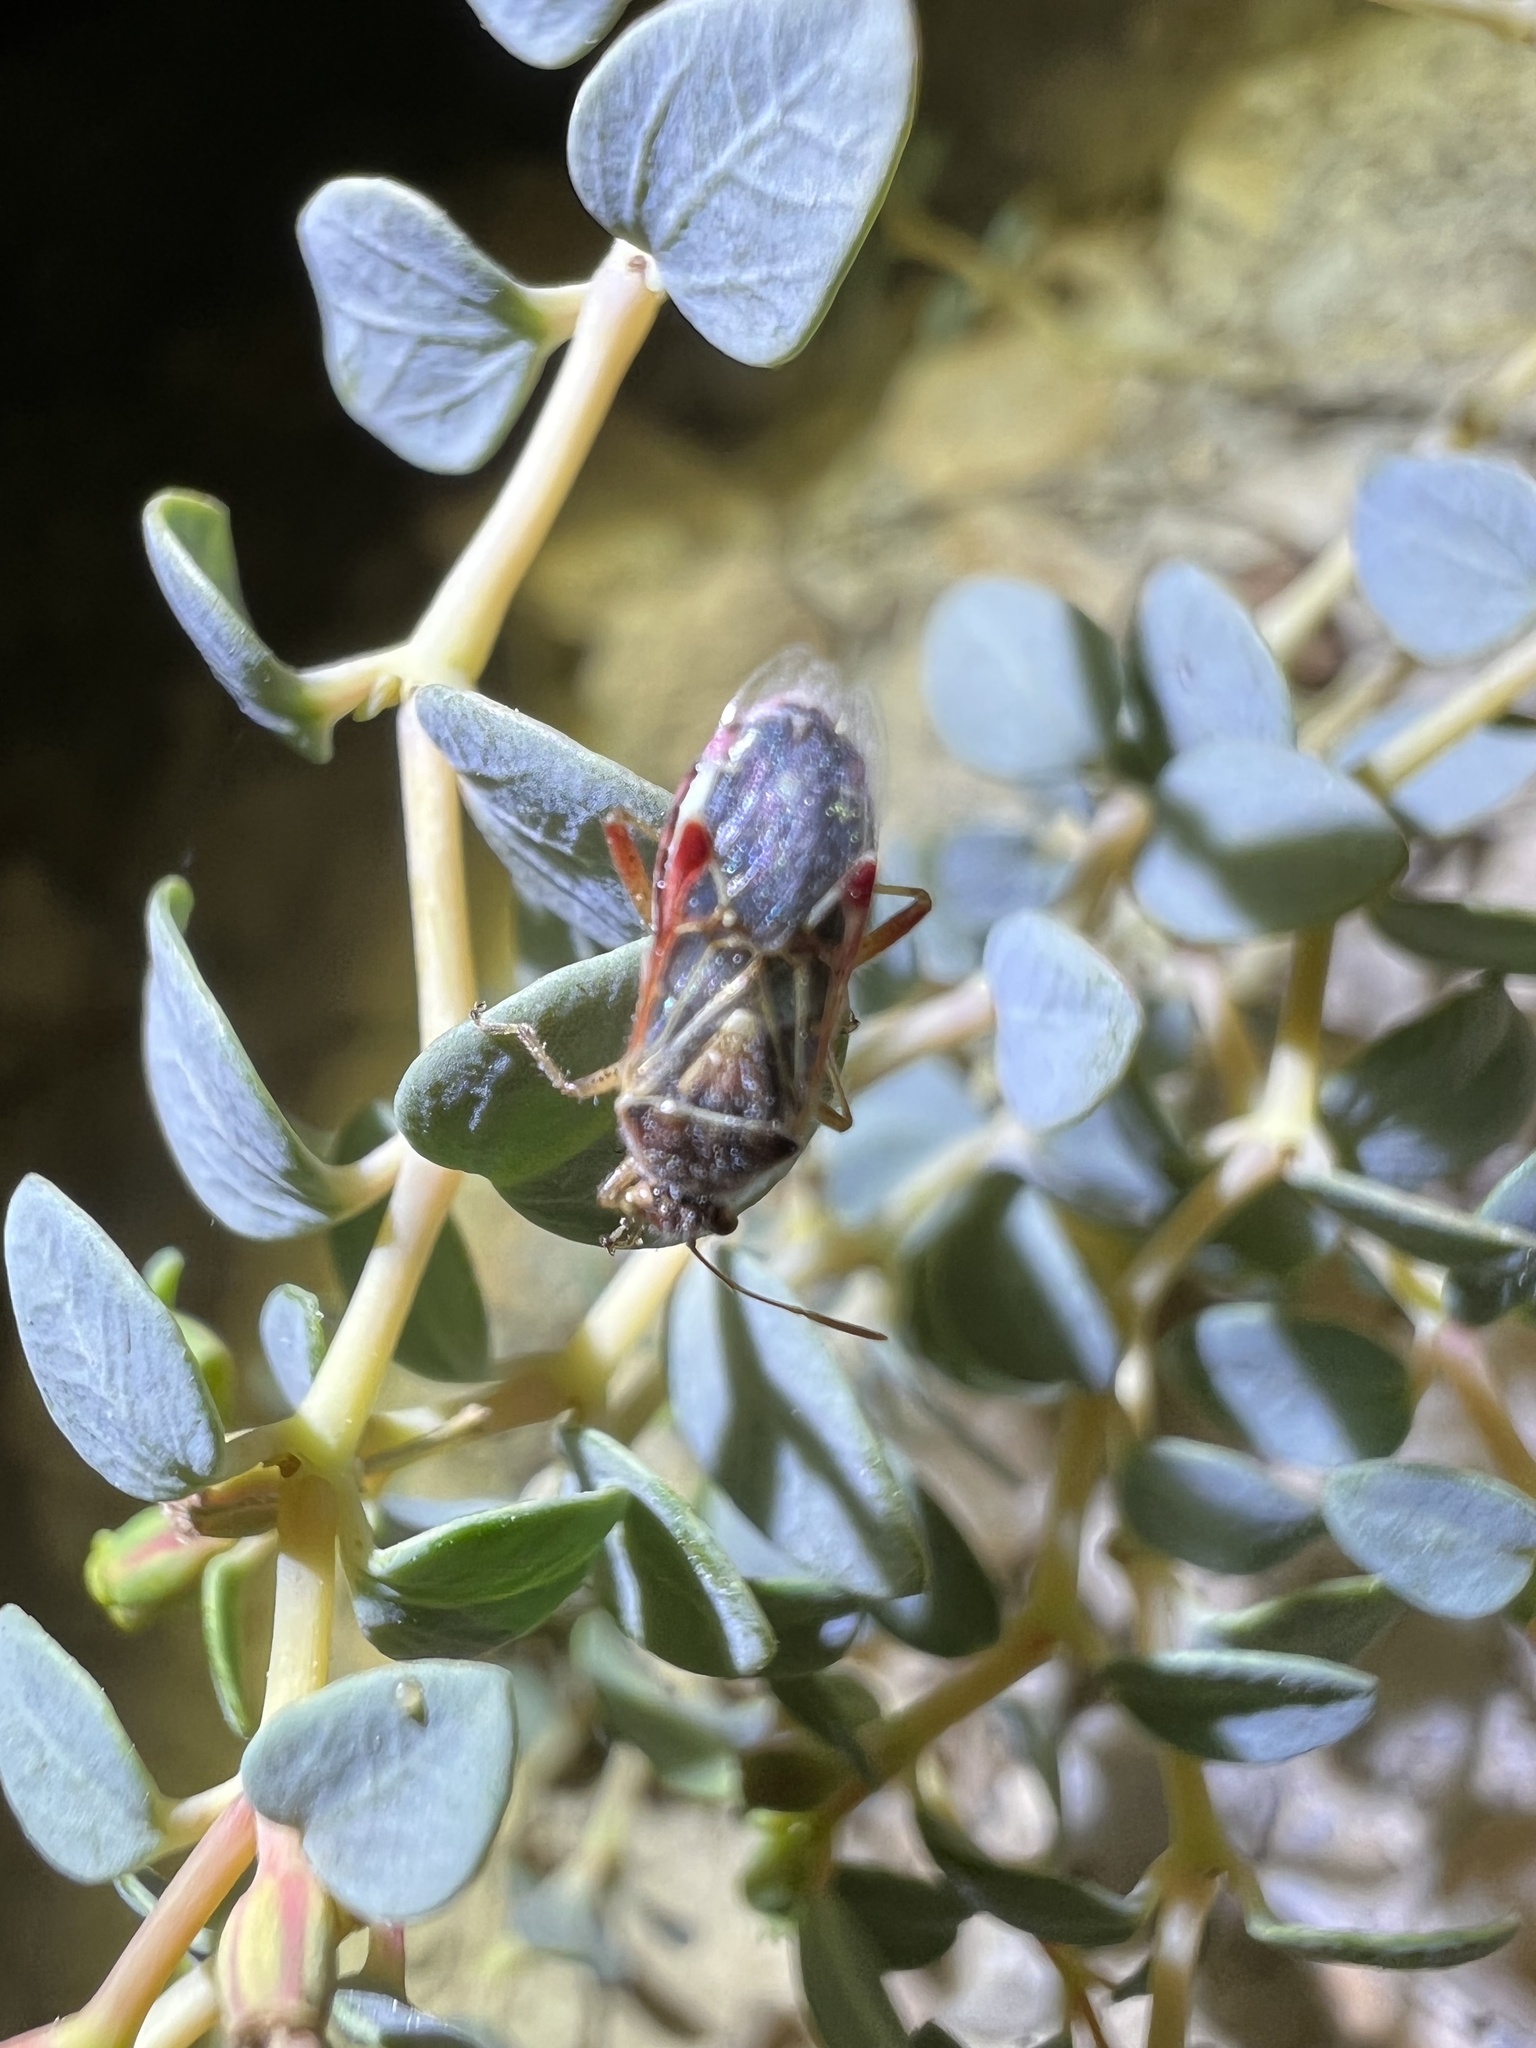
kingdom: Plantae
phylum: Tracheophyta
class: Magnoliopsida
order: Malpighiales
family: Euphorbiaceae
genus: Euphorbia
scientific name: Euphorbia perennans
